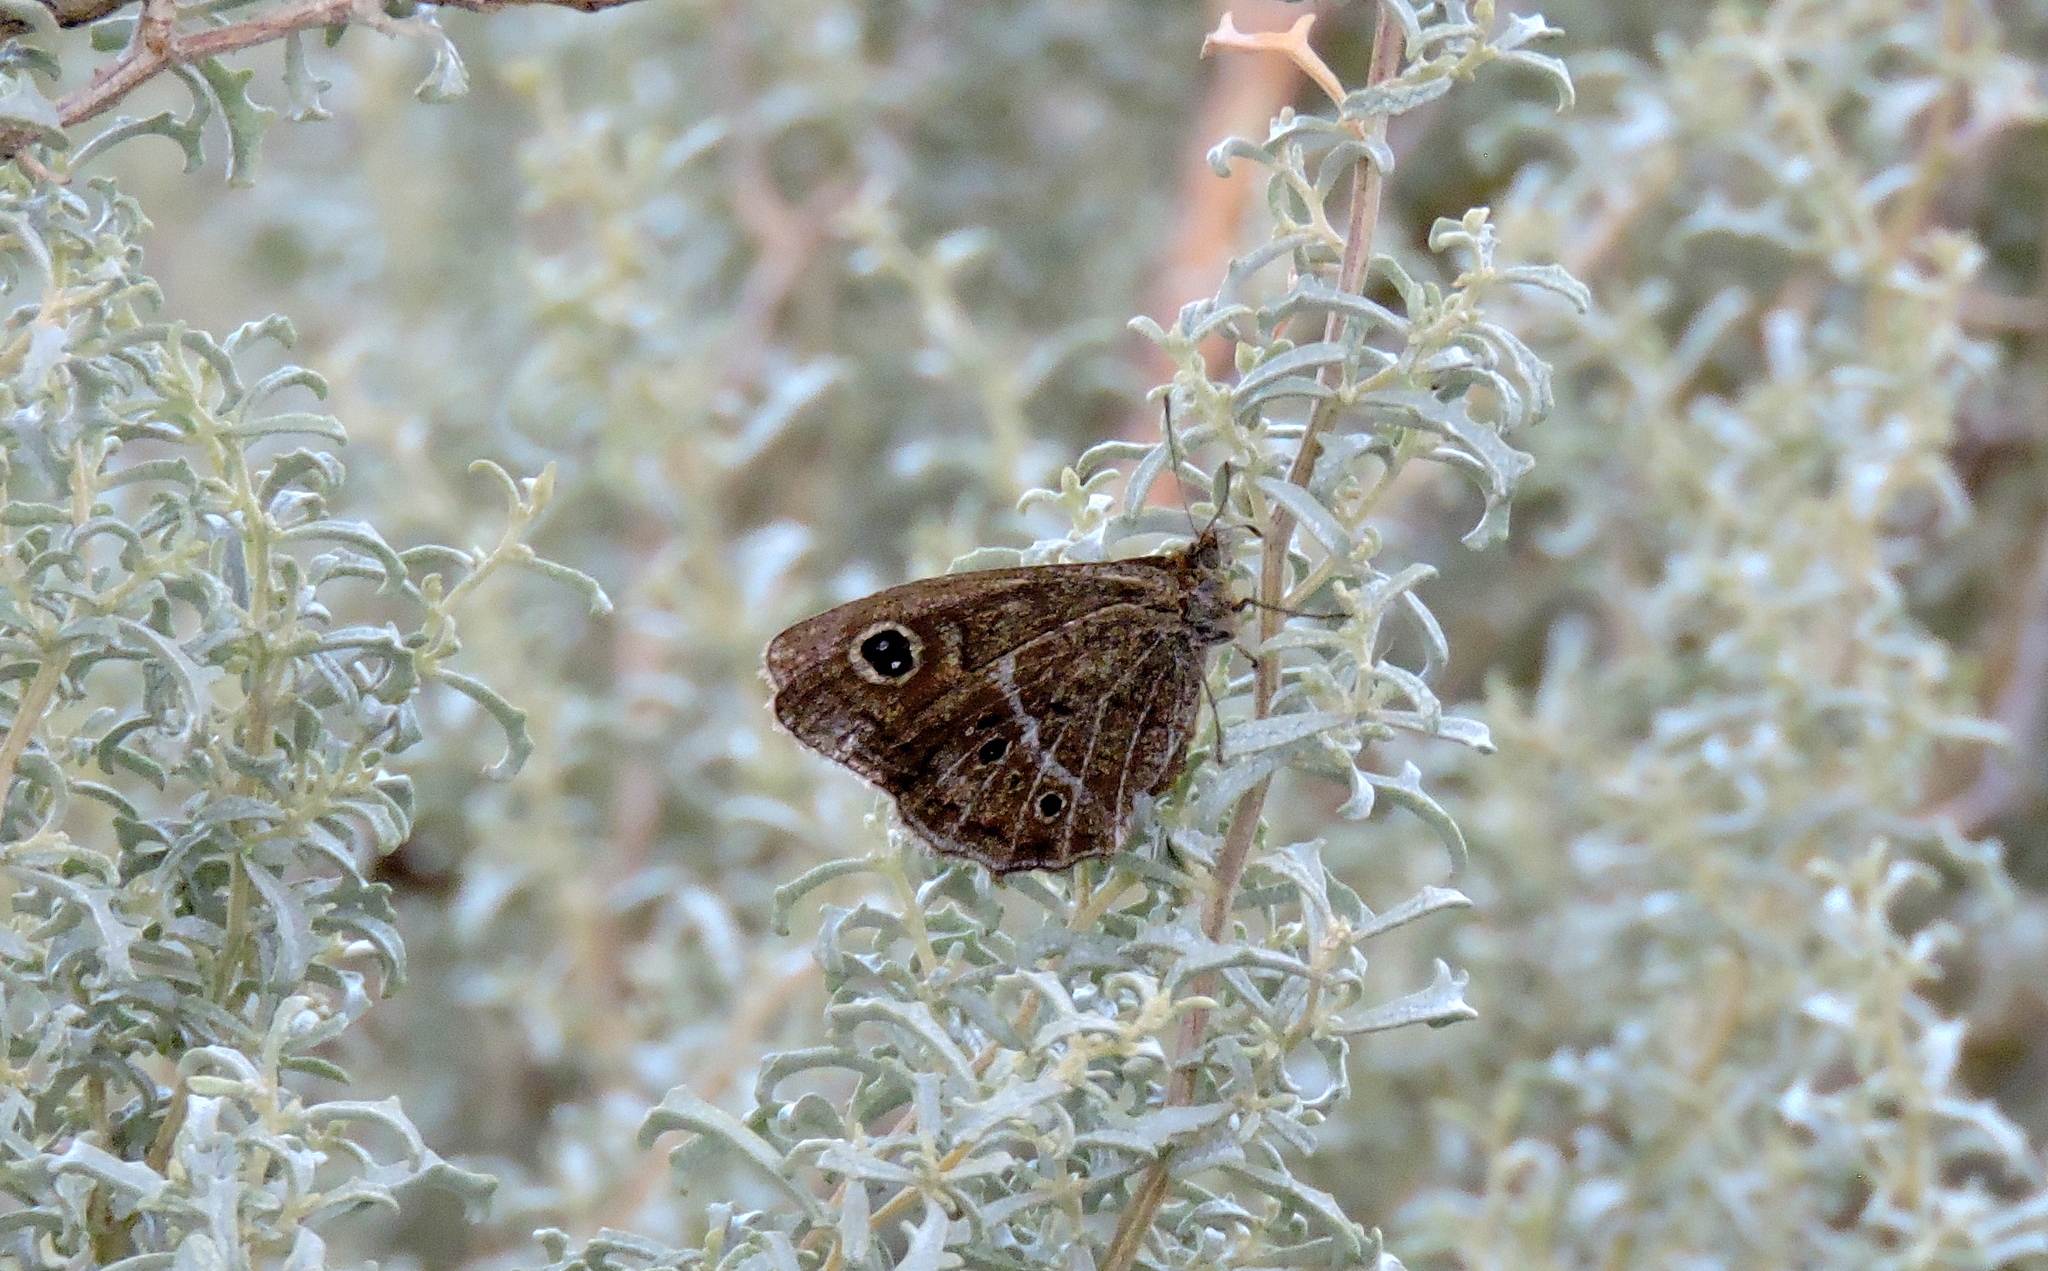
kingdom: Animalia
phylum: Arthropoda
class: Insecta
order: Lepidoptera
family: Nymphalidae
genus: Pampasatyrus
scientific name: Pampasatyrus gyrtone
